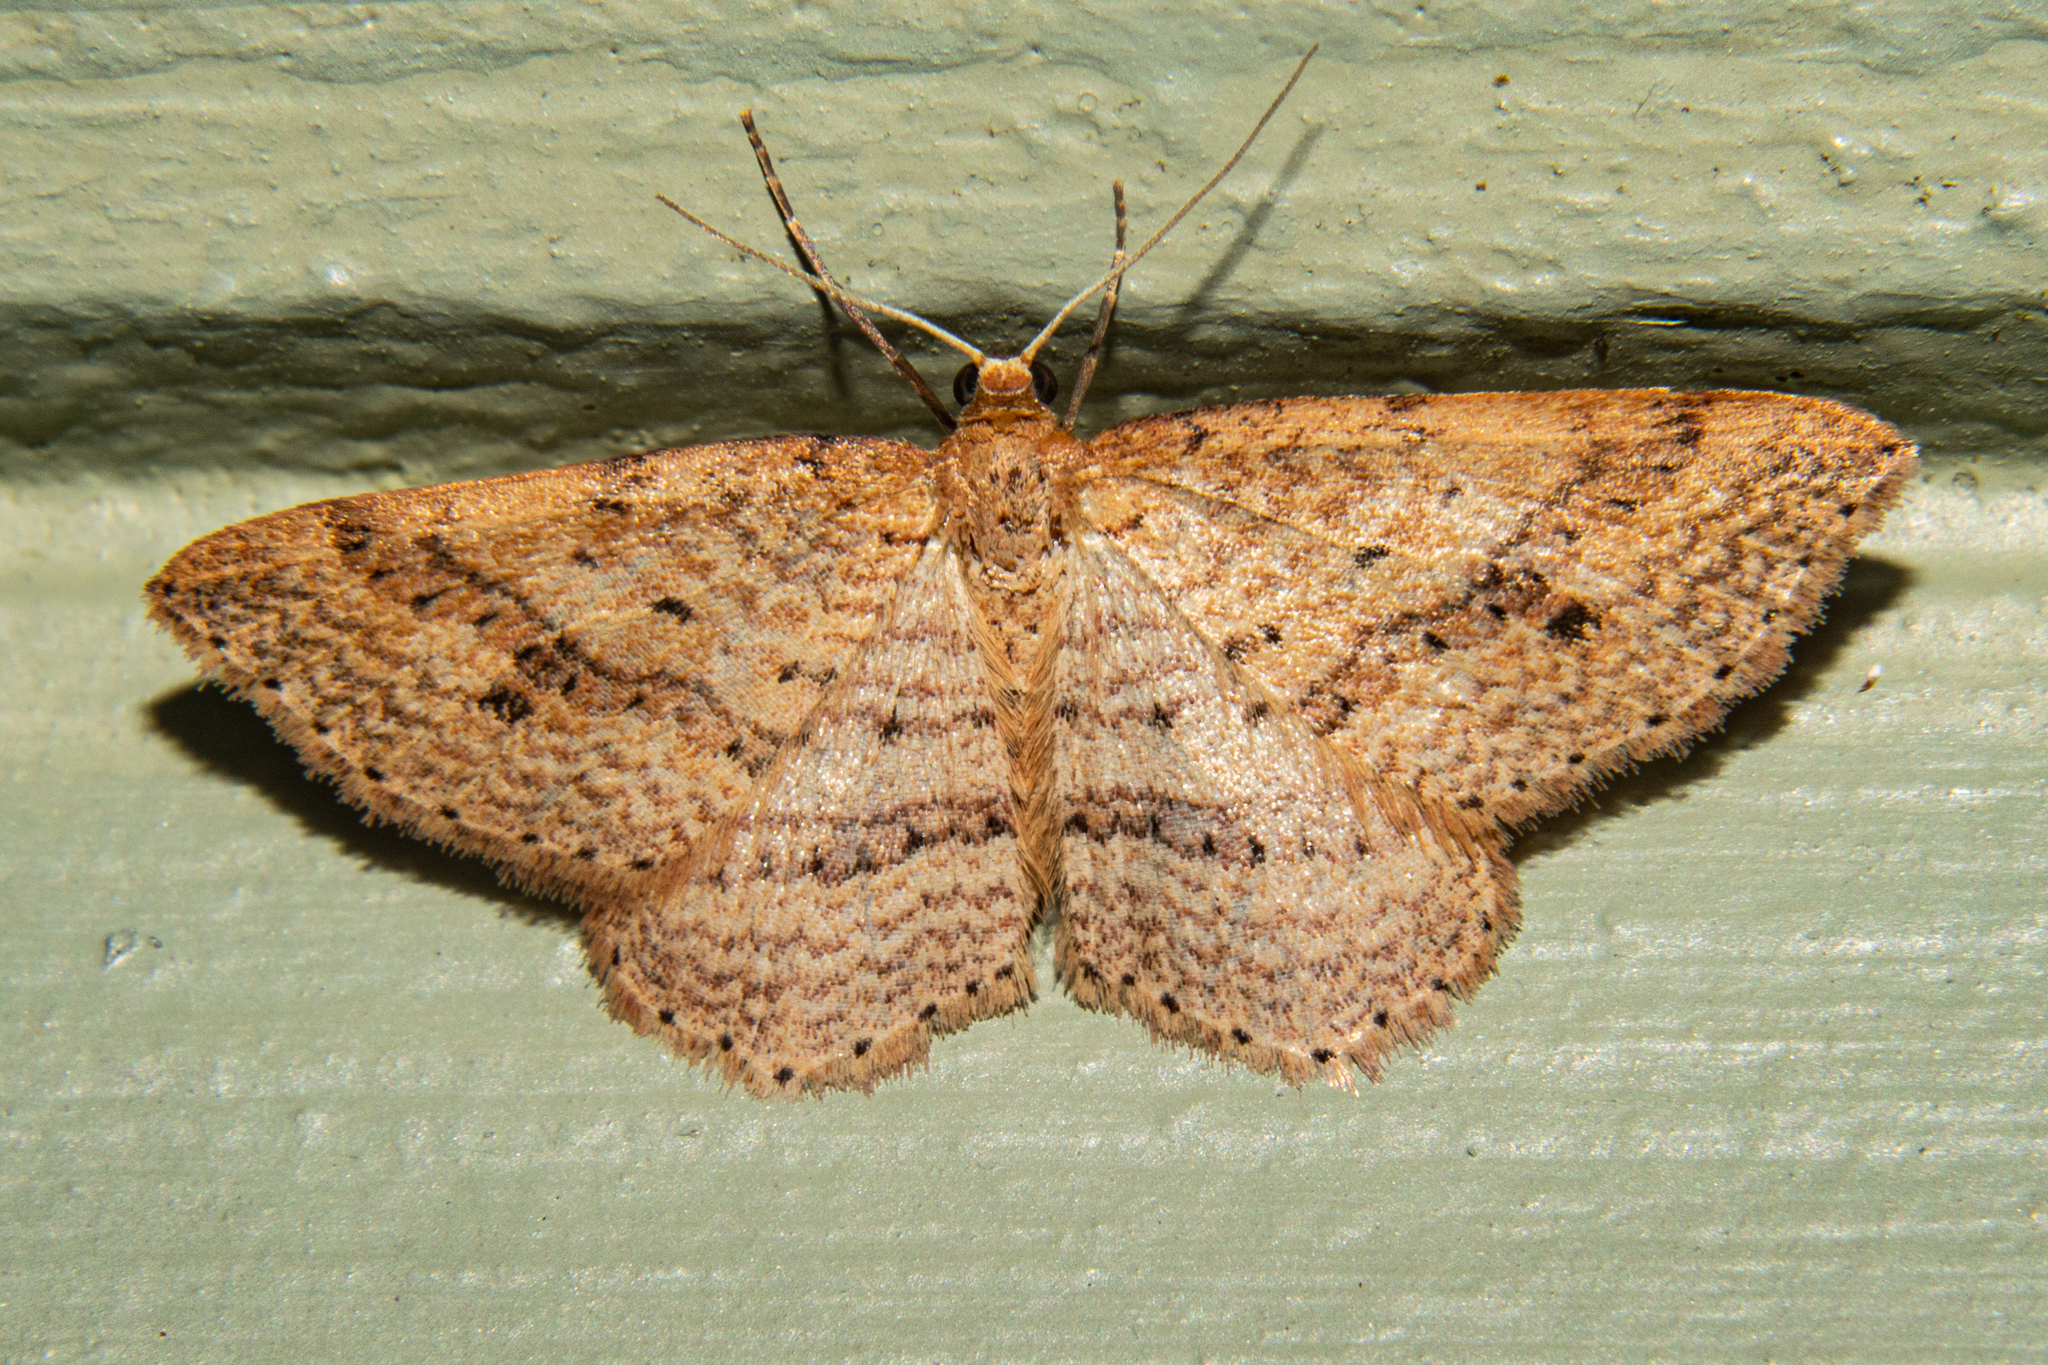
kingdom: Animalia
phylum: Arthropoda
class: Insecta
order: Lepidoptera
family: Geometridae
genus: Epicyme
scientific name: Epicyme rubropunctaria
